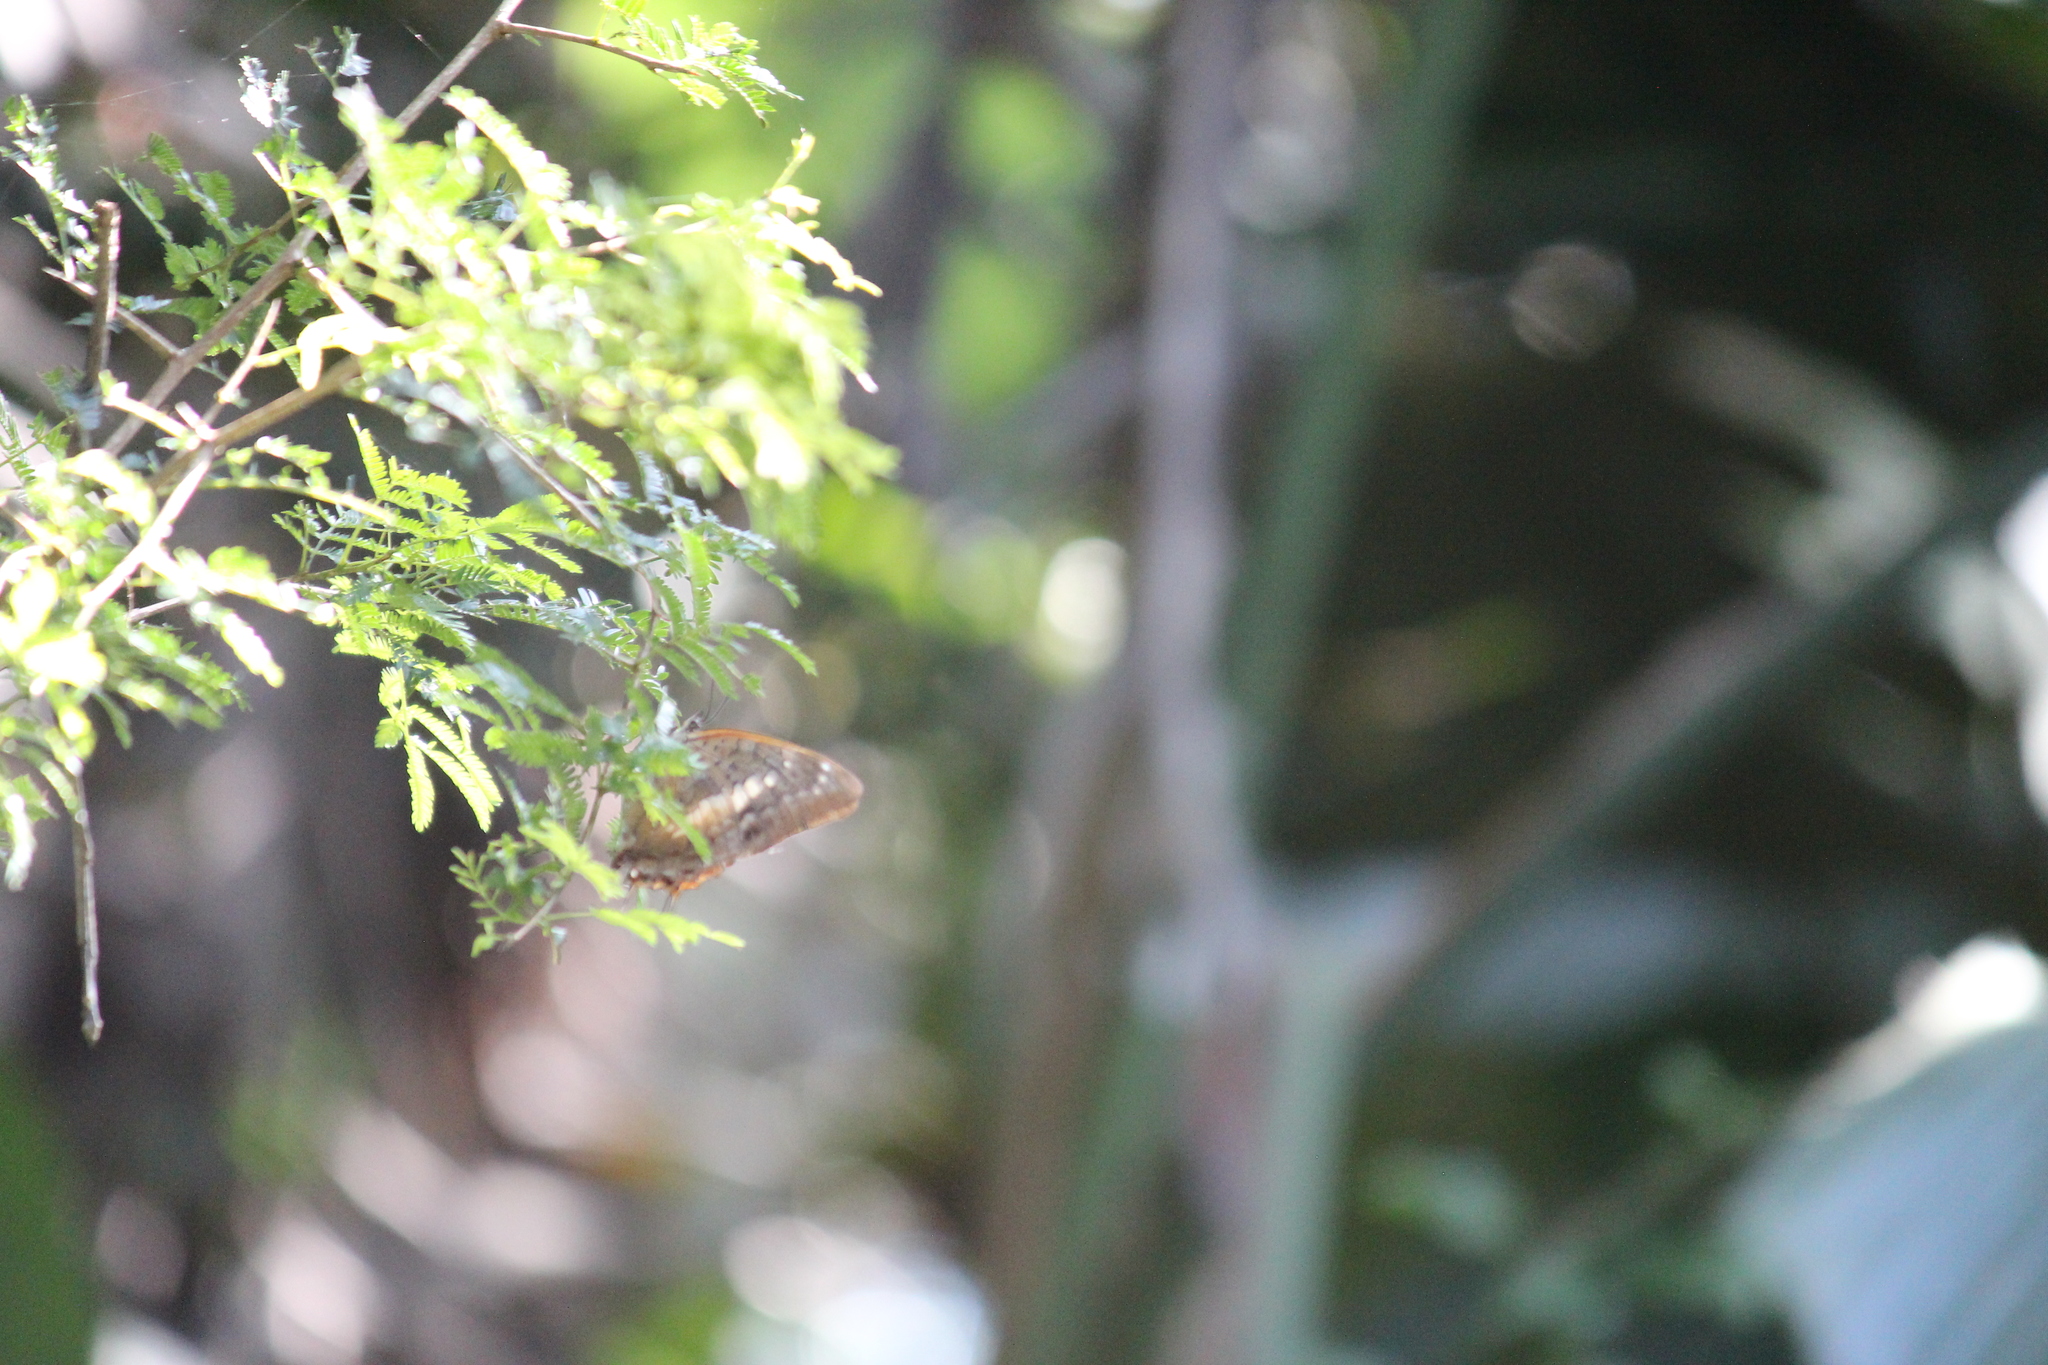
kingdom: Animalia
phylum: Arthropoda
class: Insecta
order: Lepidoptera
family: Nymphalidae
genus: Charaxes
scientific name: Charaxes ethalion
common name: Satyr charaxes
